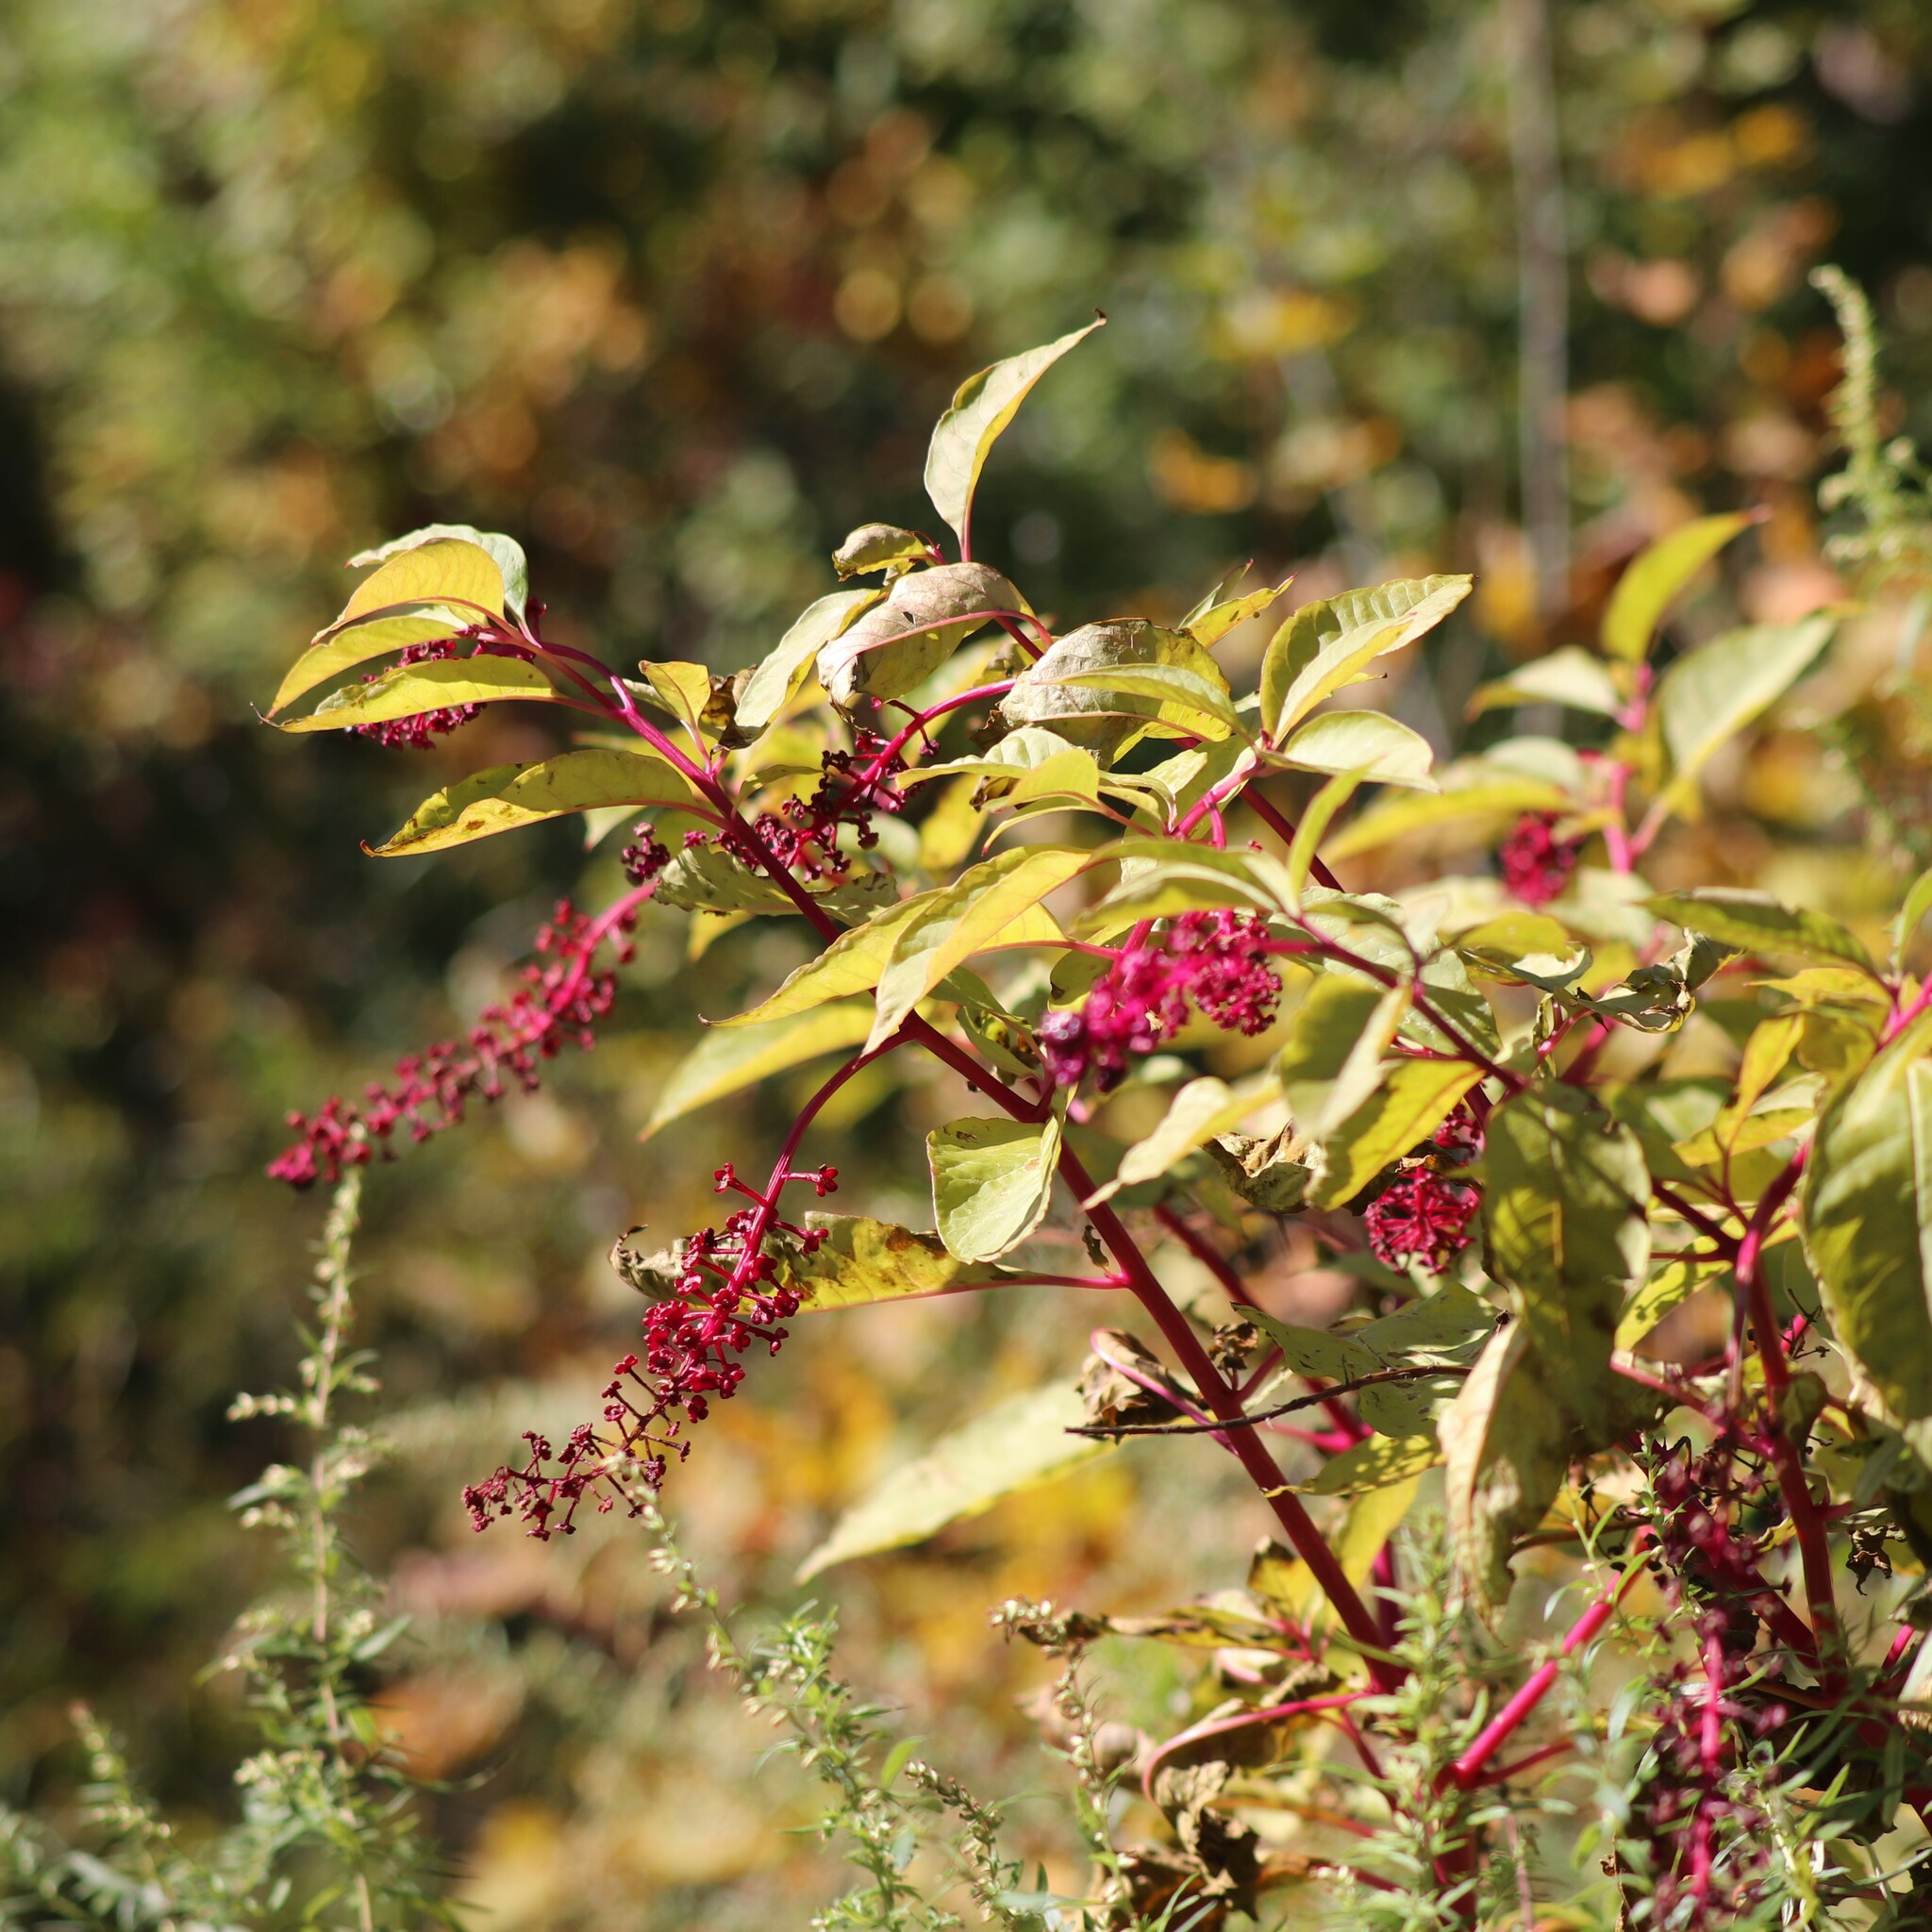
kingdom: Plantae
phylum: Tracheophyta
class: Magnoliopsida
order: Caryophyllales
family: Phytolaccaceae
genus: Phytolacca
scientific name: Phytolacca americana
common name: American pokeweed
